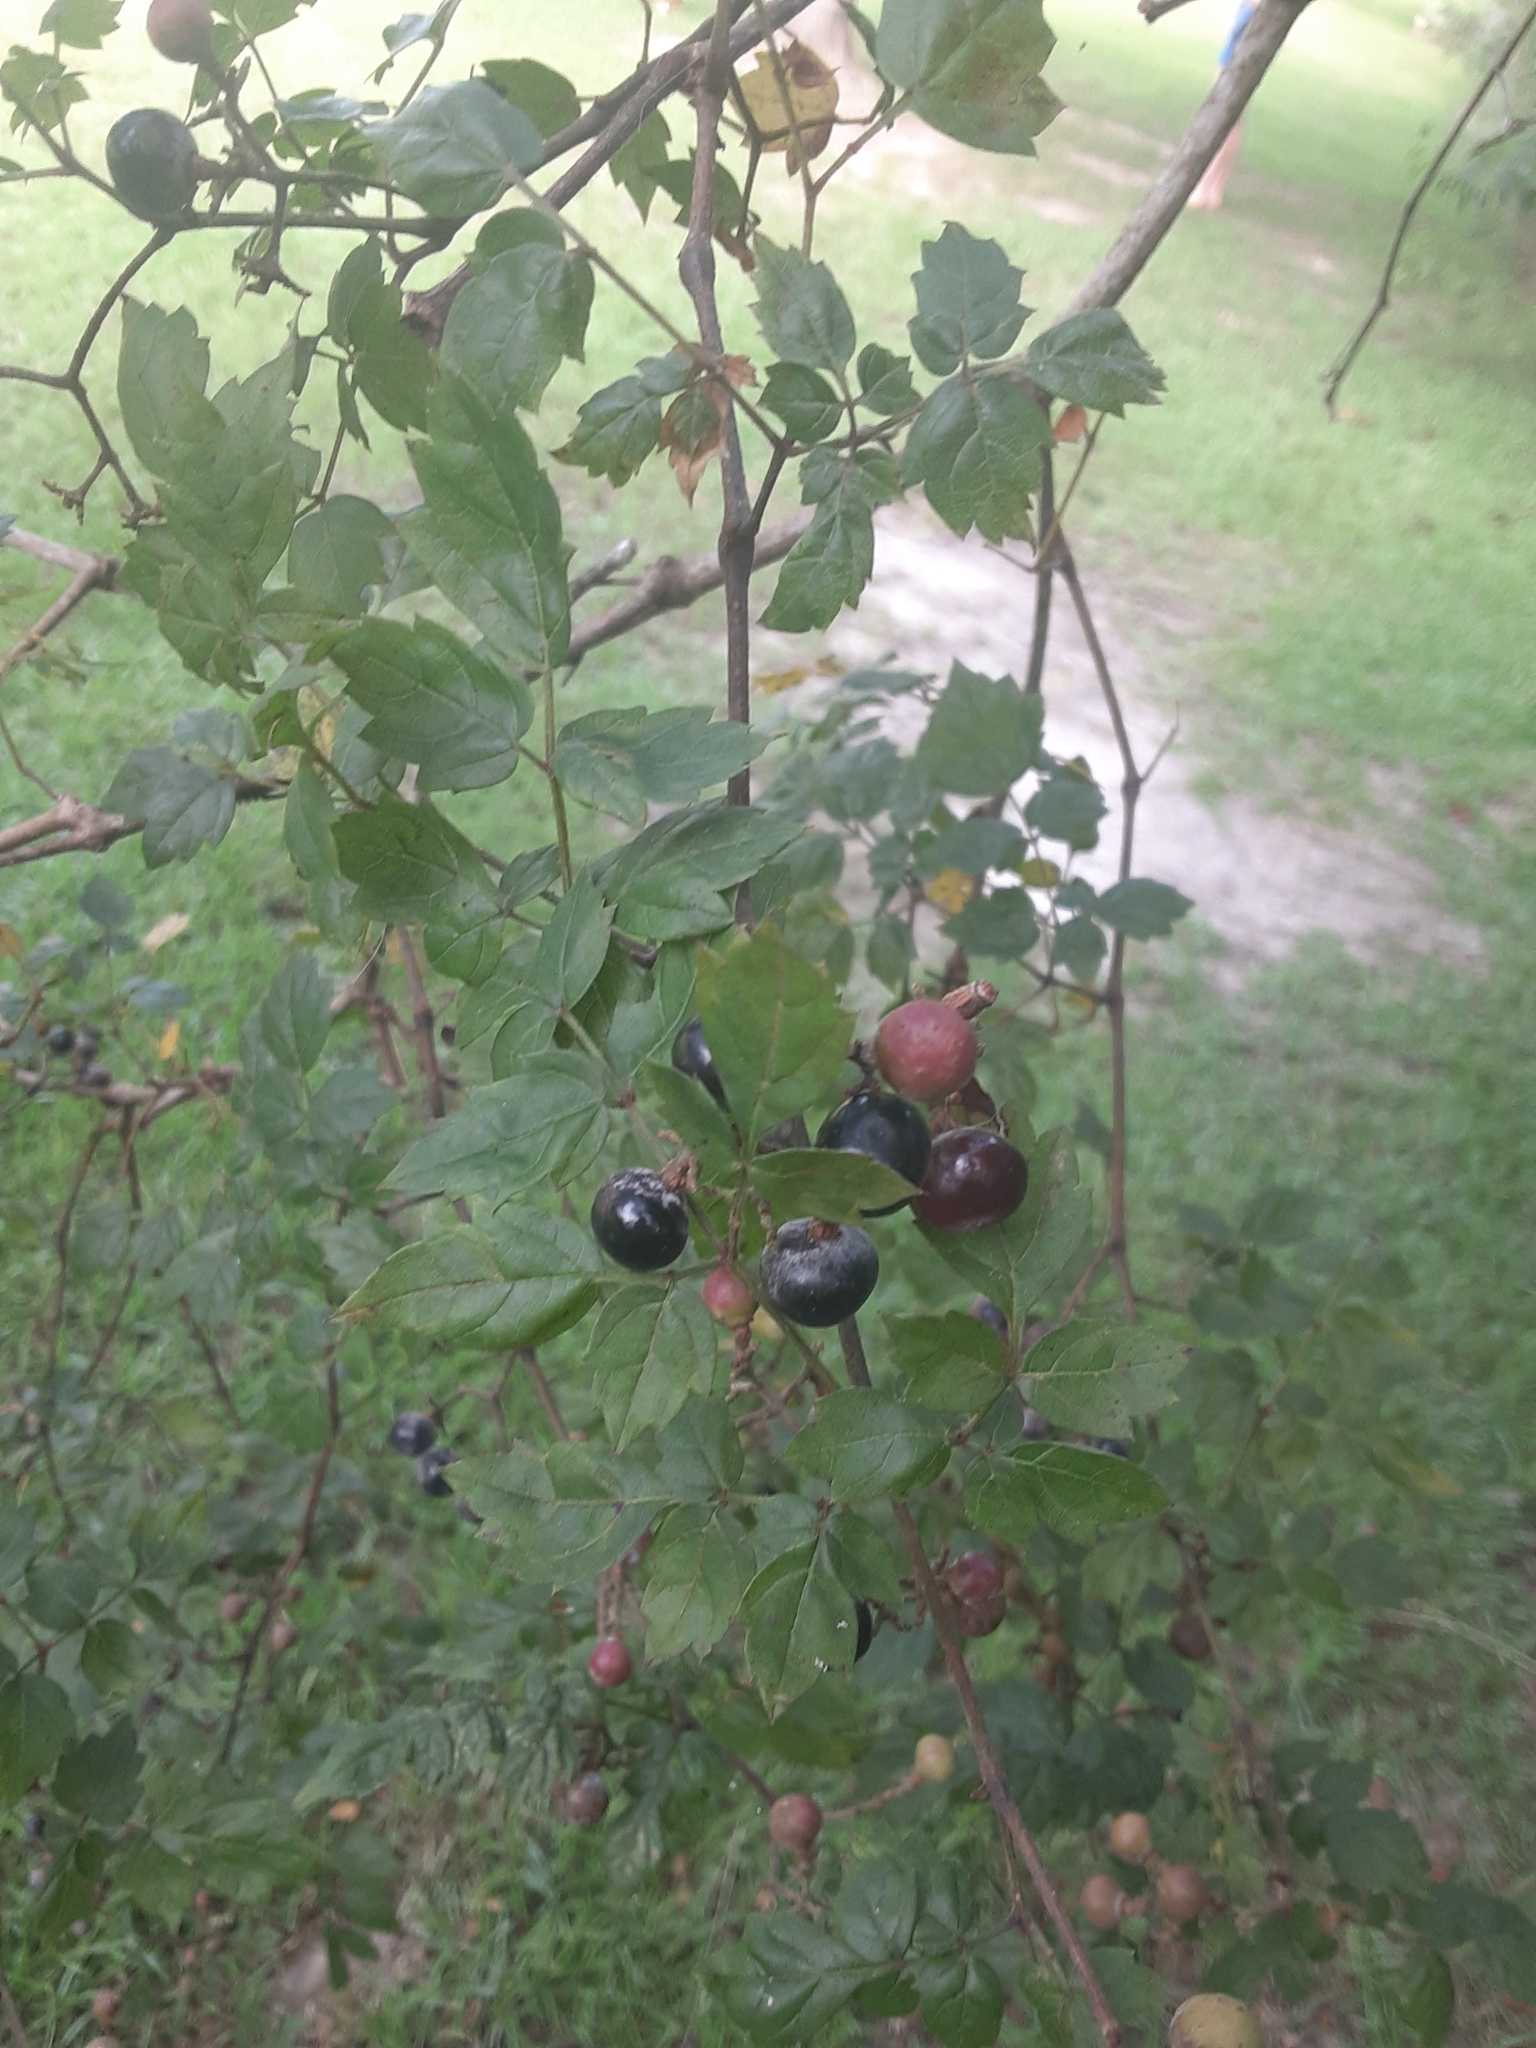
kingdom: Plantae
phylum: Tracheophyta
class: Magnoliopsida
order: Vitales
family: Vitaceae
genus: Nekemias
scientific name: Nekemias arborea
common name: Peppervine
